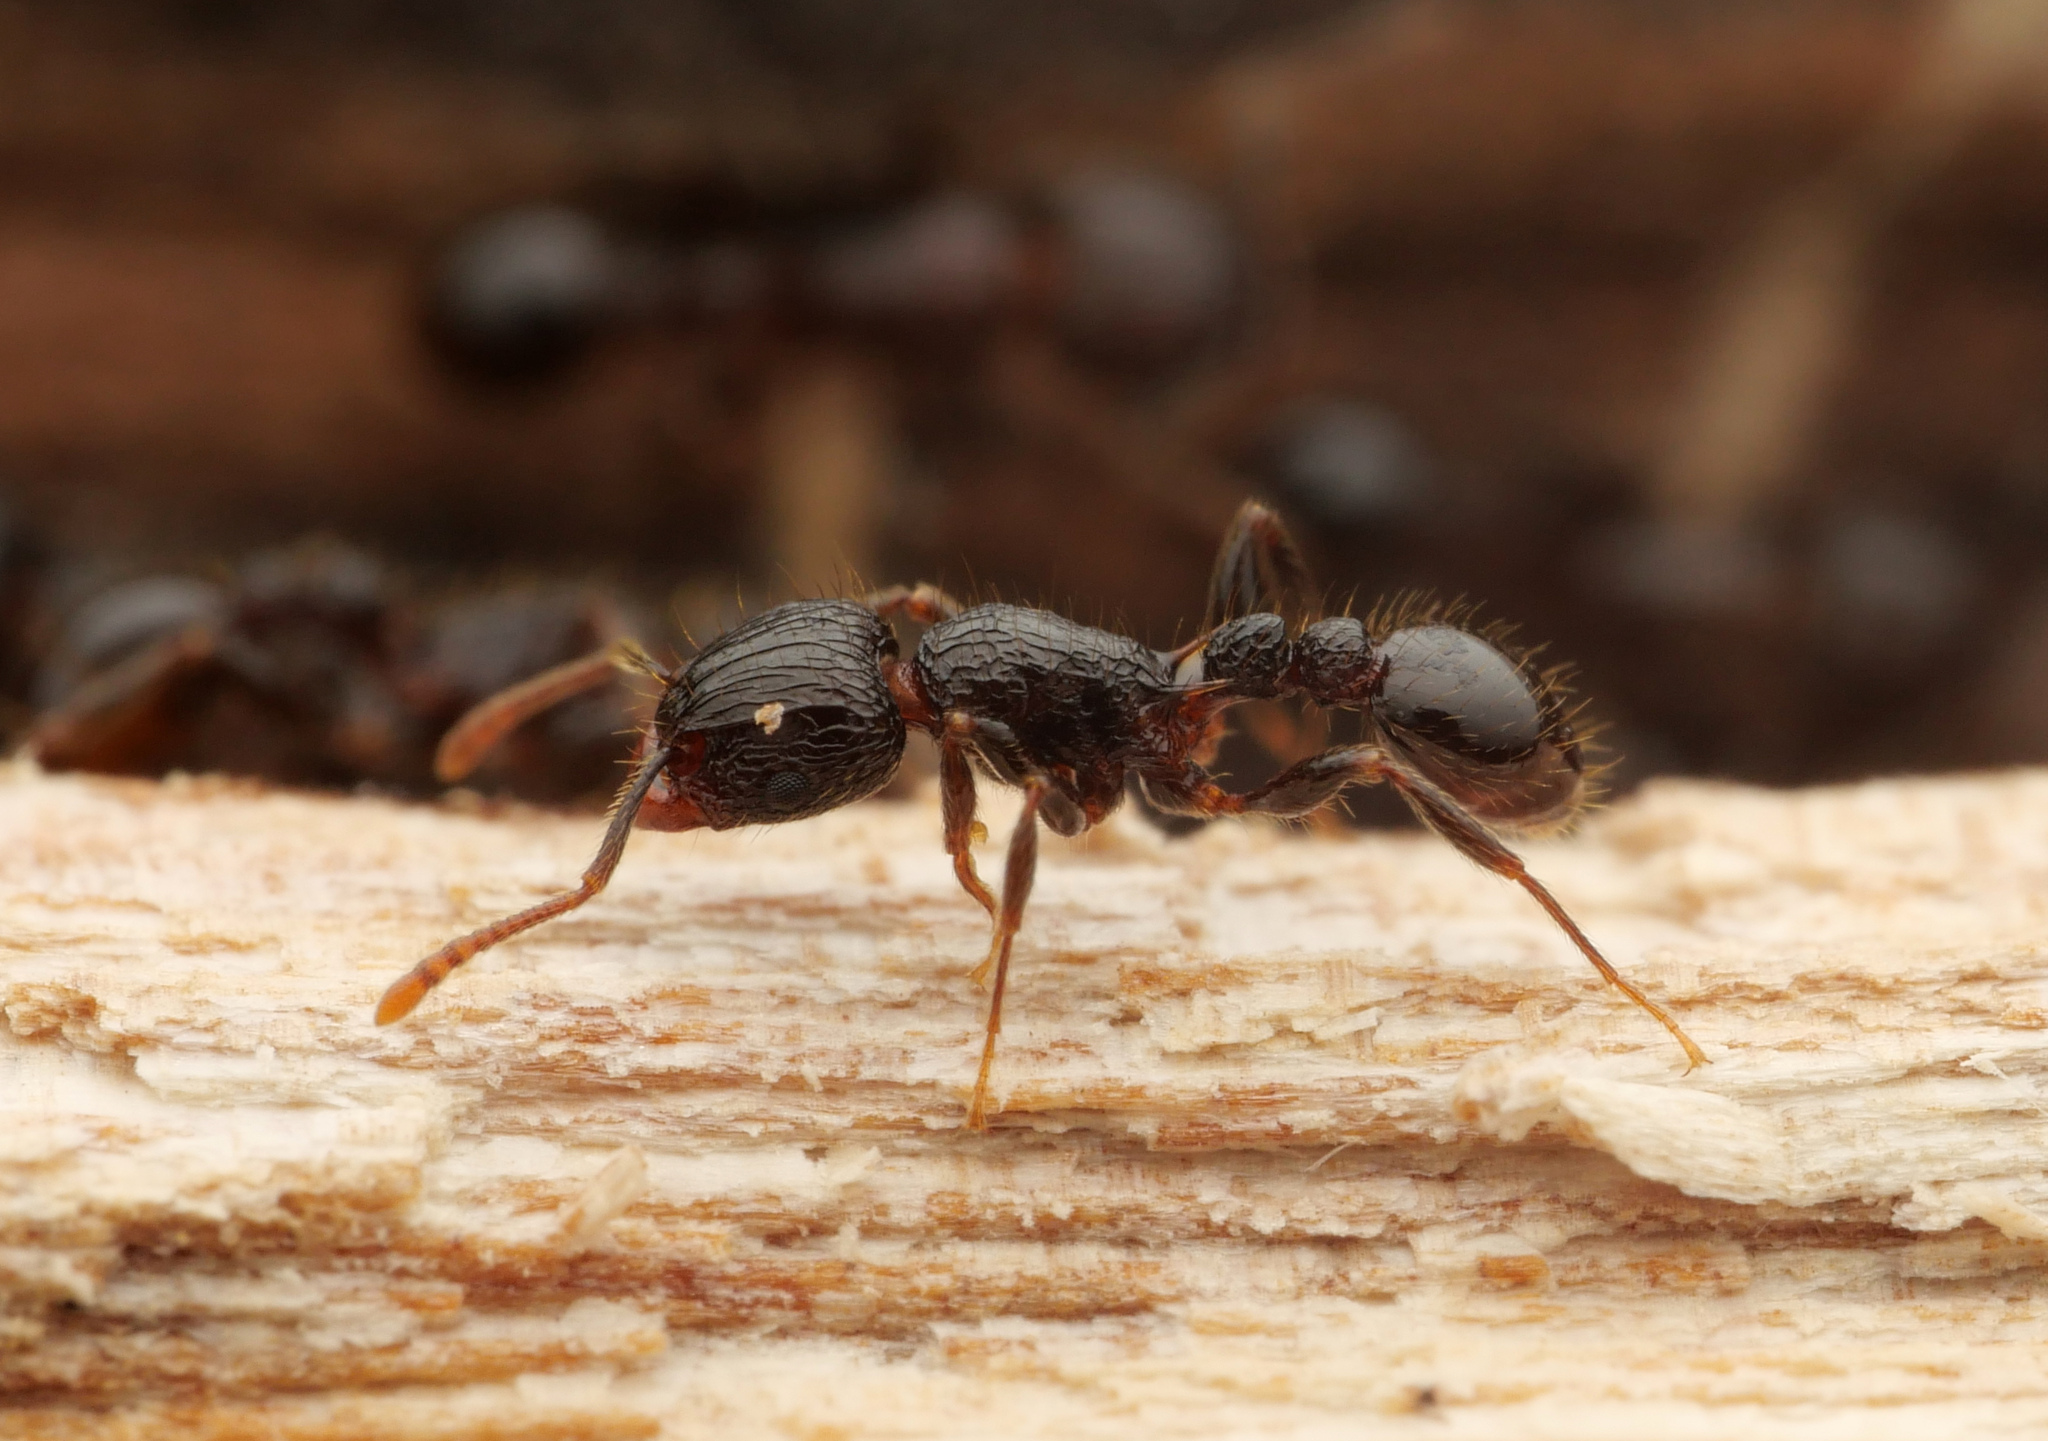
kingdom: Animalia
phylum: Arthropoda
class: Insecta
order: Hymenoptera
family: Formicidae
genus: Tetramorium
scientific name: Tetramorium validiusculum
